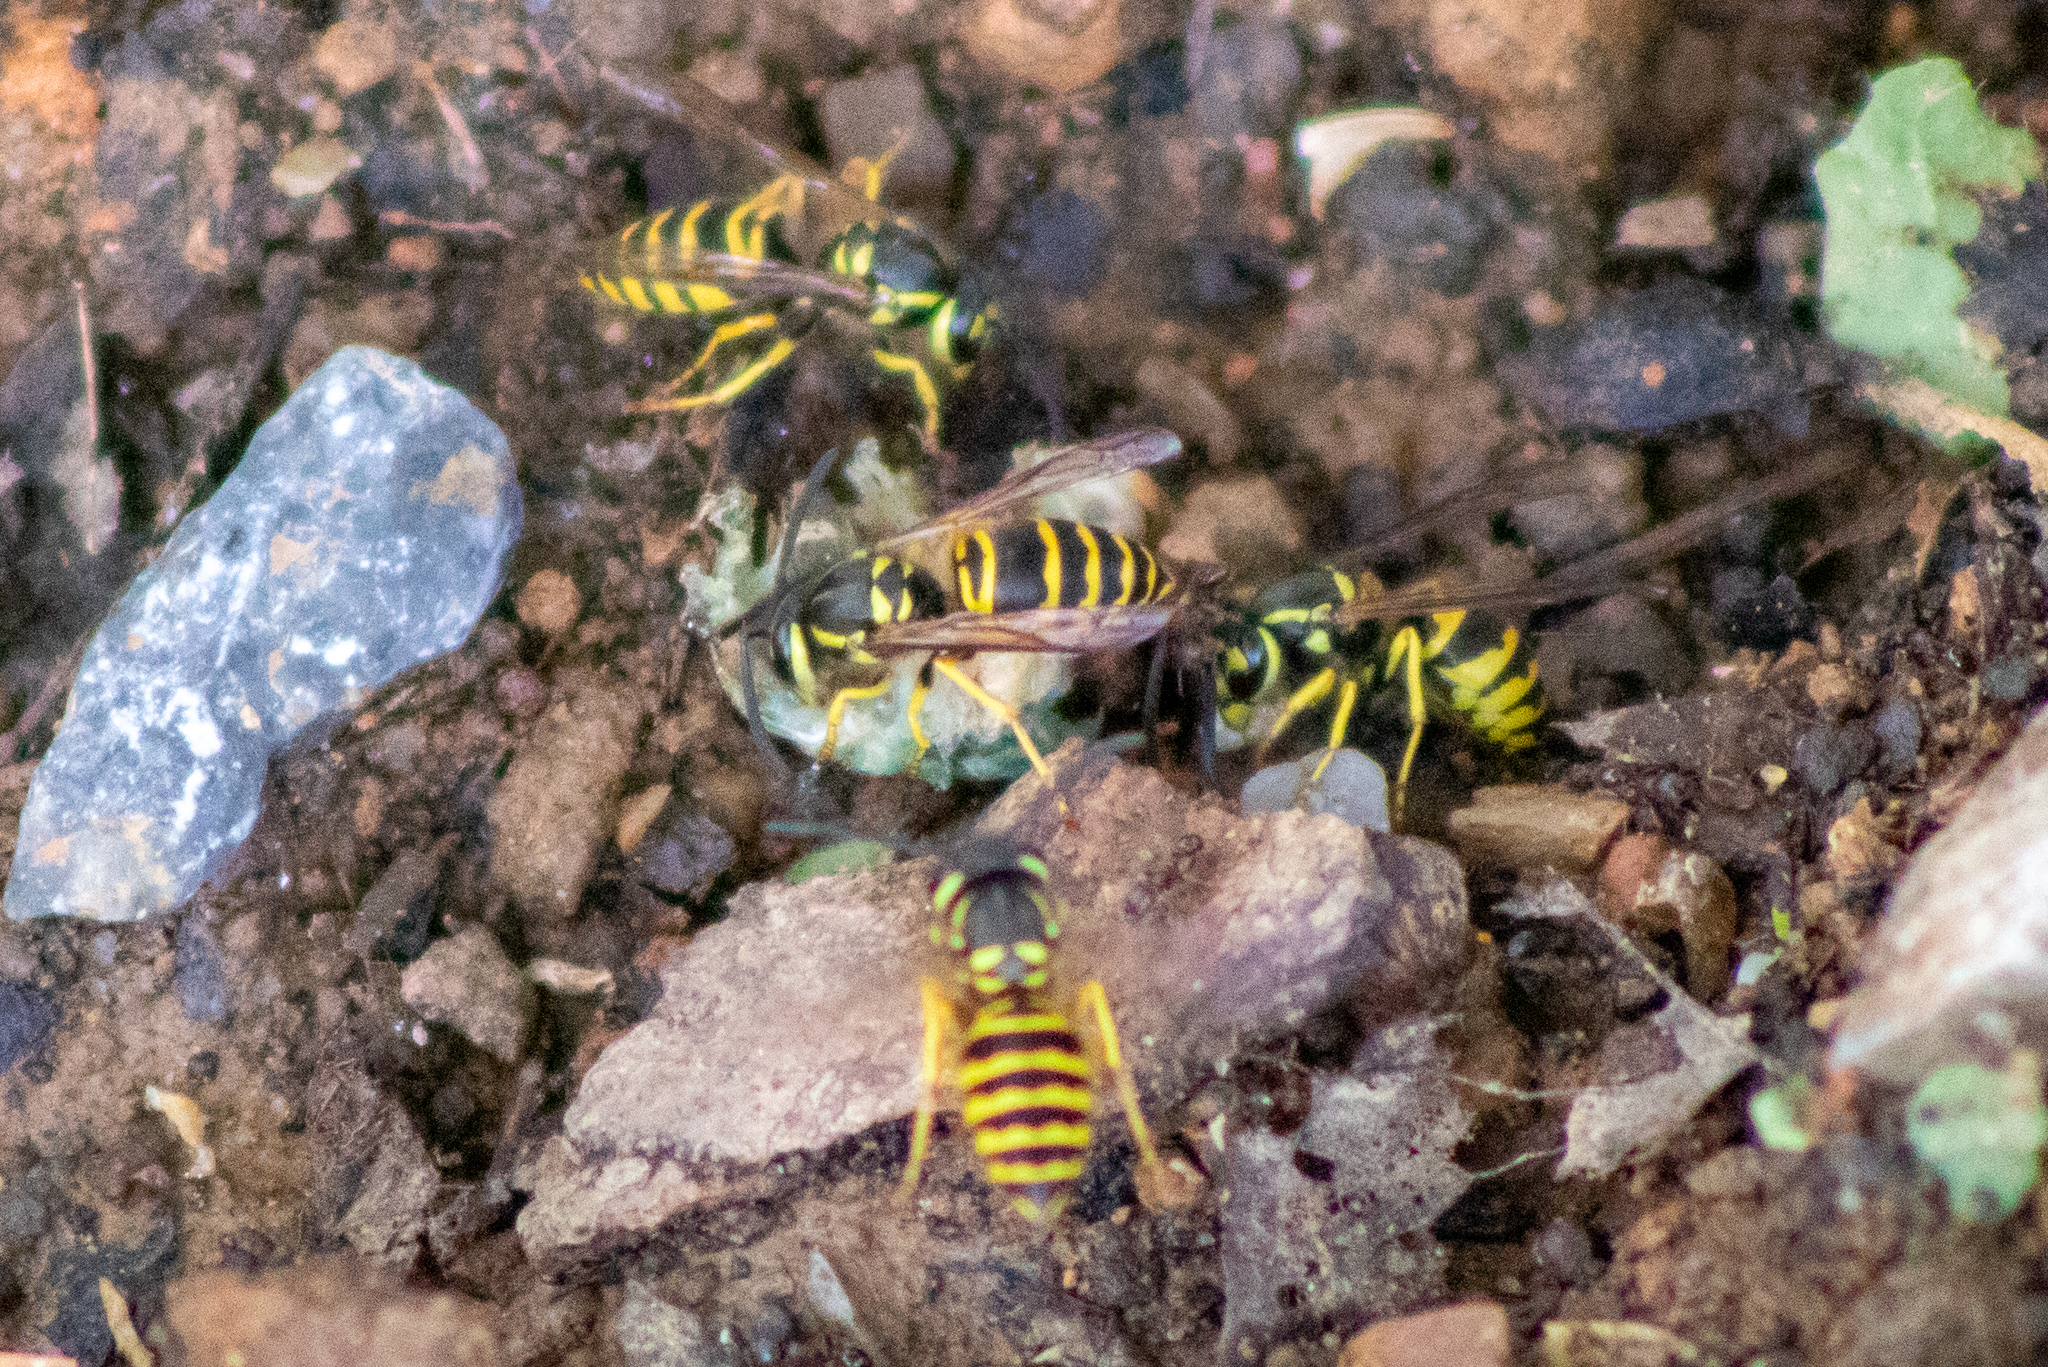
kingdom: Animalia
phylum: Arthropoda
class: Insecta
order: Hymenoptera
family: Vespidae
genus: Vespula
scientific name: Vespula maculifrons
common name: Eastern yellowjacket
